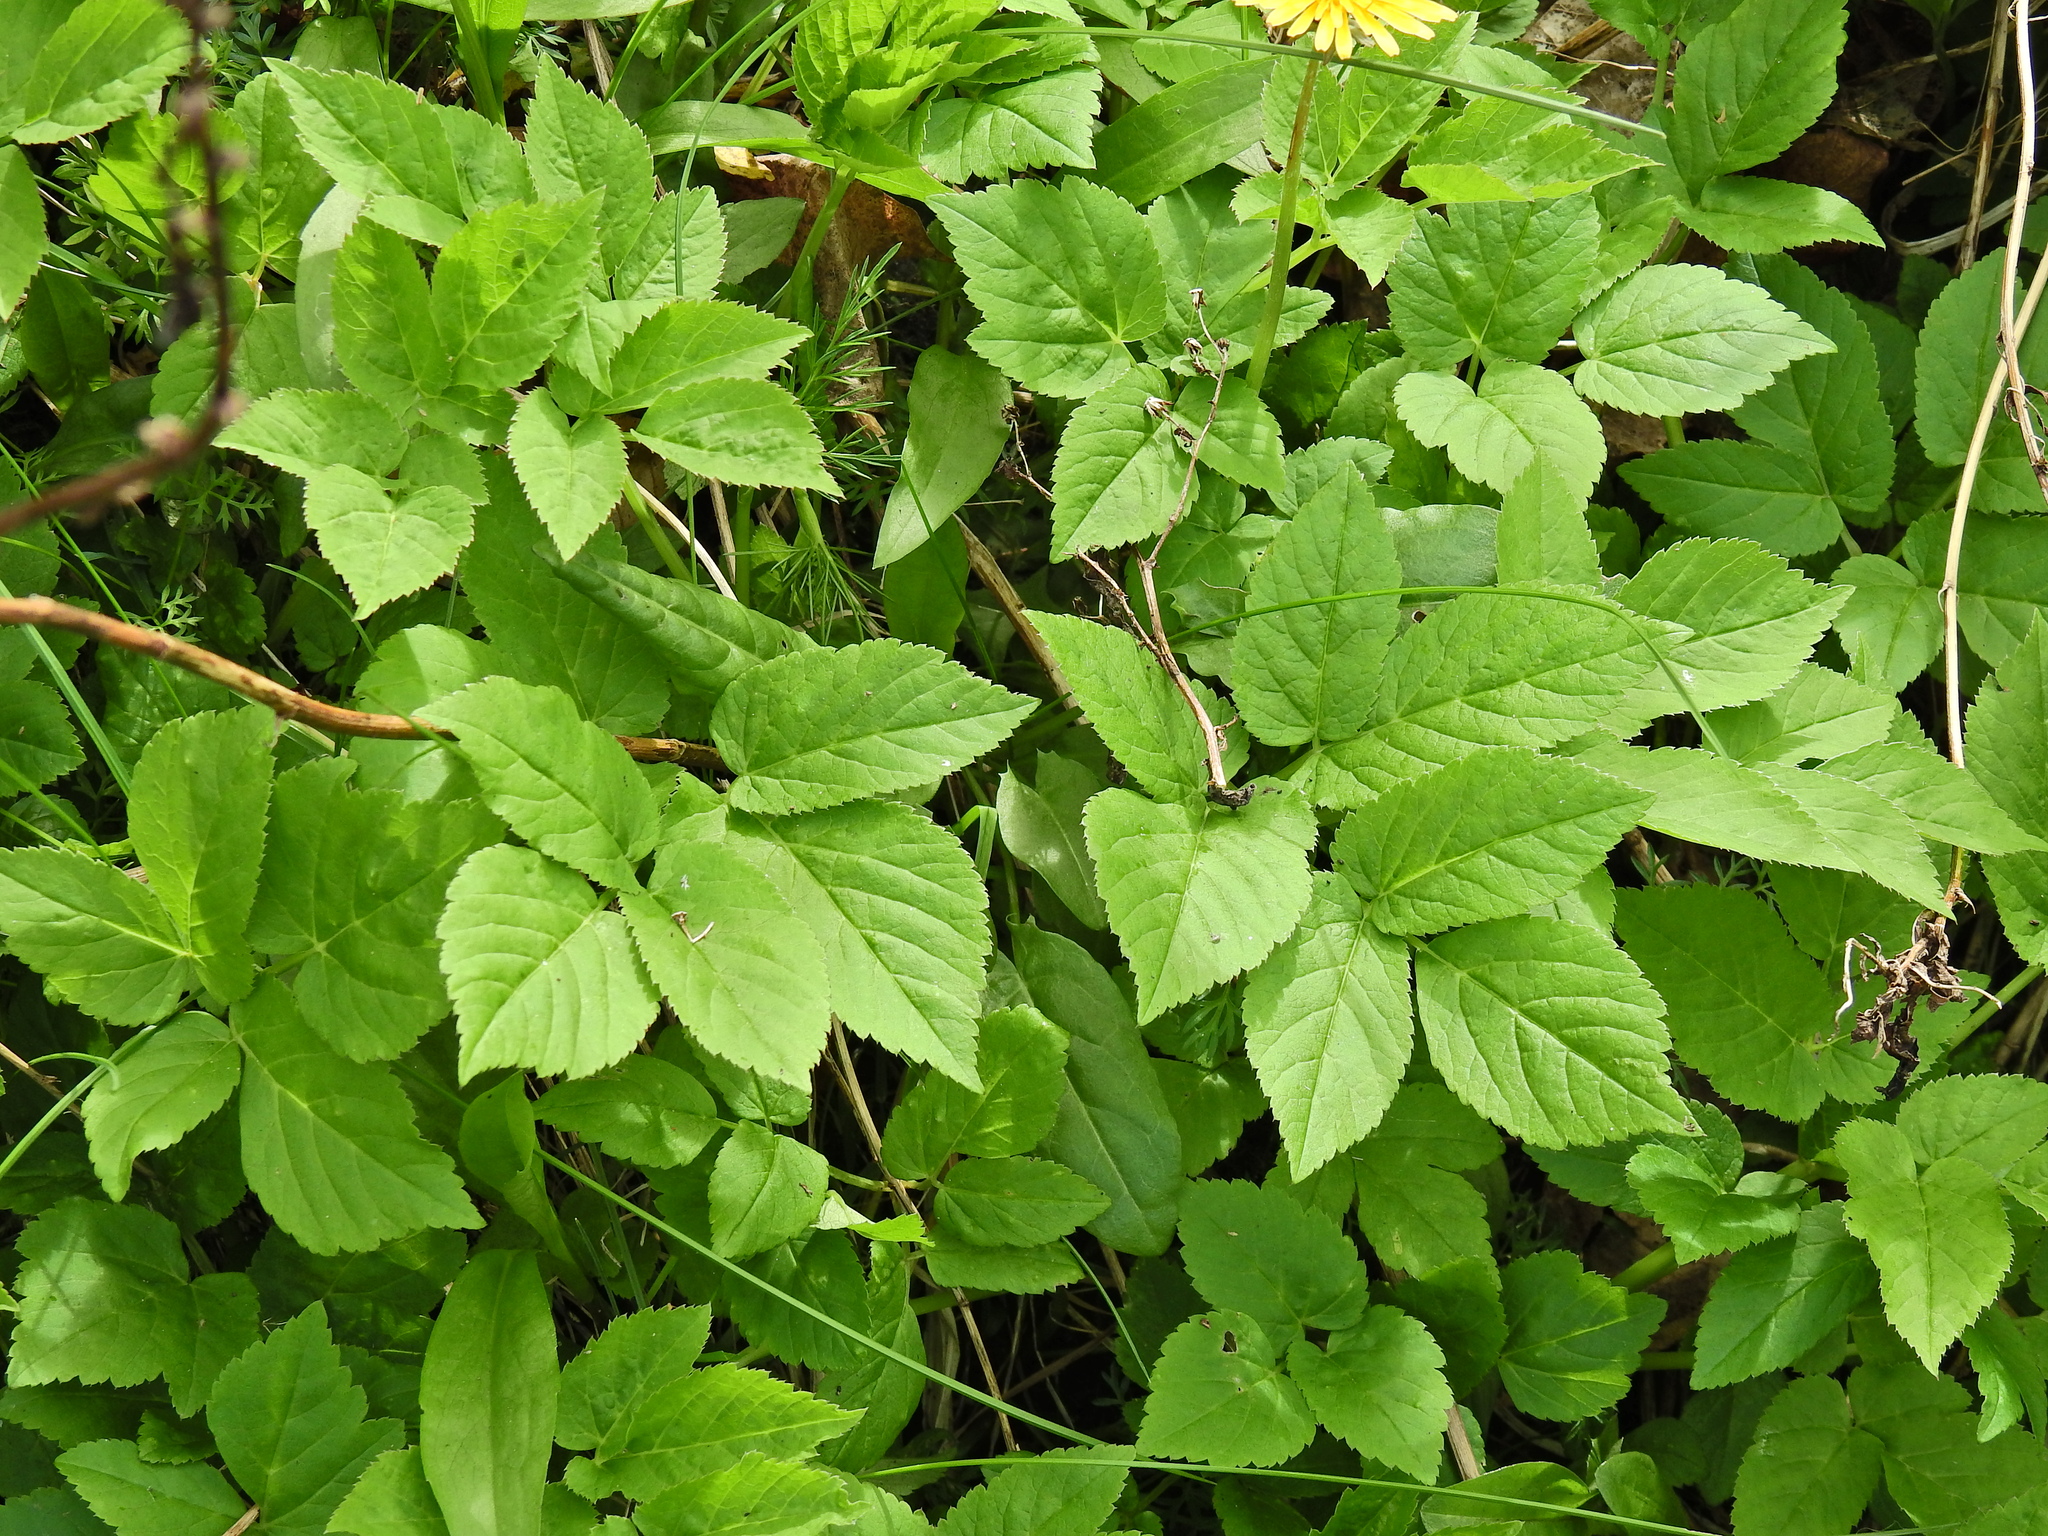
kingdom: Plantae
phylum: Tracheophyta
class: Magnoliopsida
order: Apiales
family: Apiaceae
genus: Aegopodium
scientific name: Aegopodium podagraria
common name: Ground-elder
